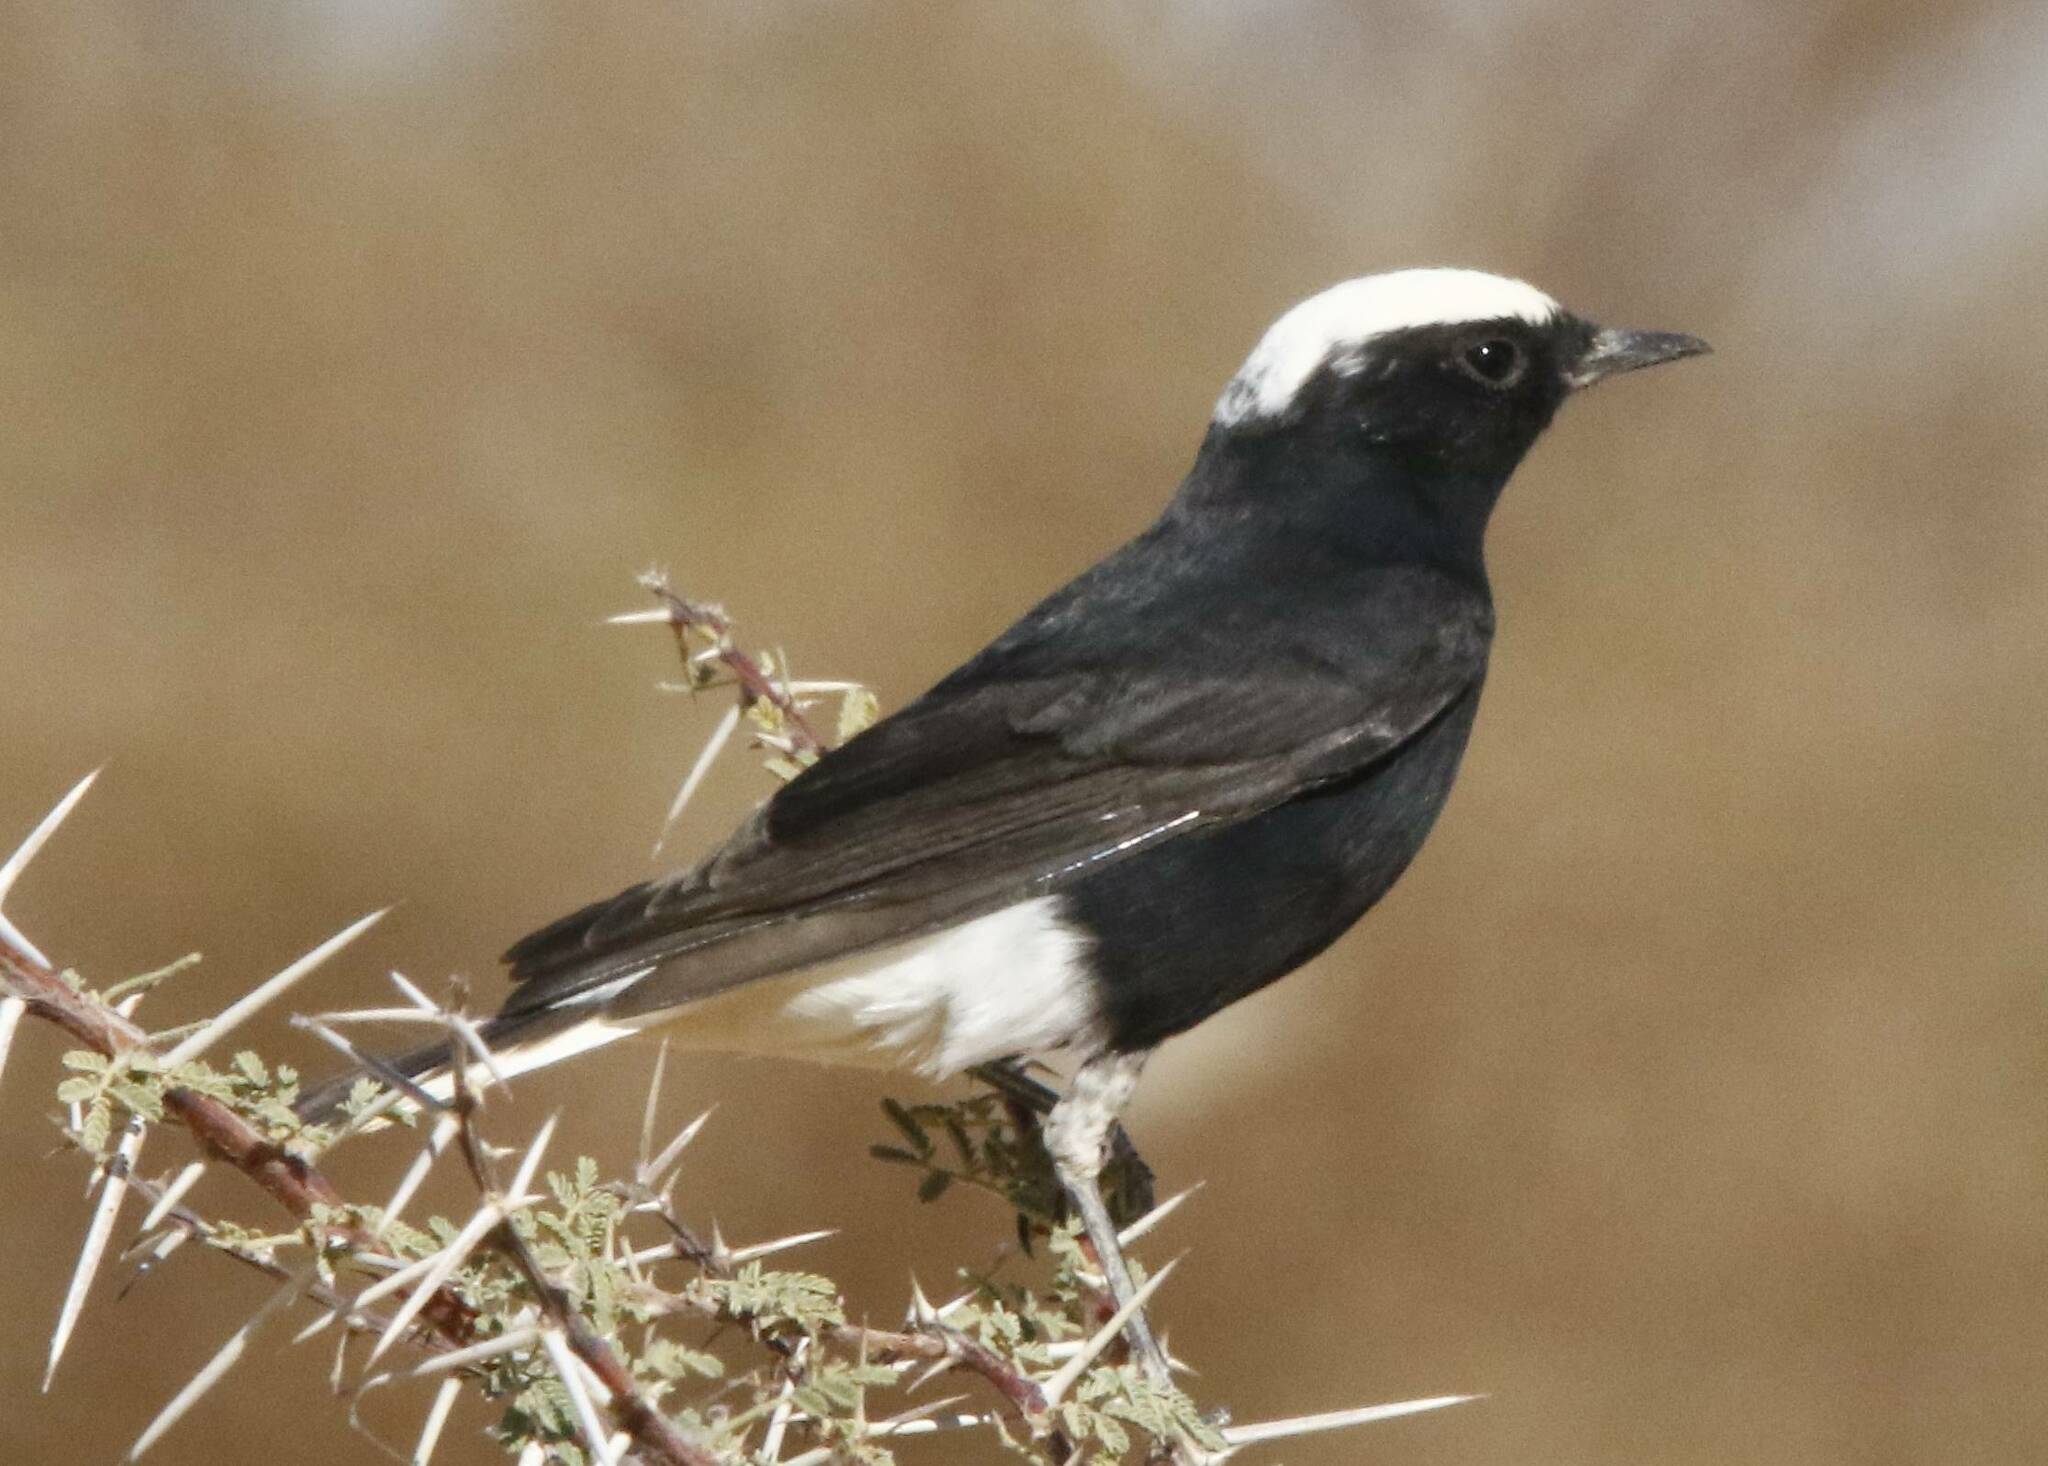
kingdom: Animalia
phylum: Chordata
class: Aves
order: Passeriformes
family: Muscicapidae
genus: Oenanthe
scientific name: Oenanthe leucopyga
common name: White-crowned wheatear
